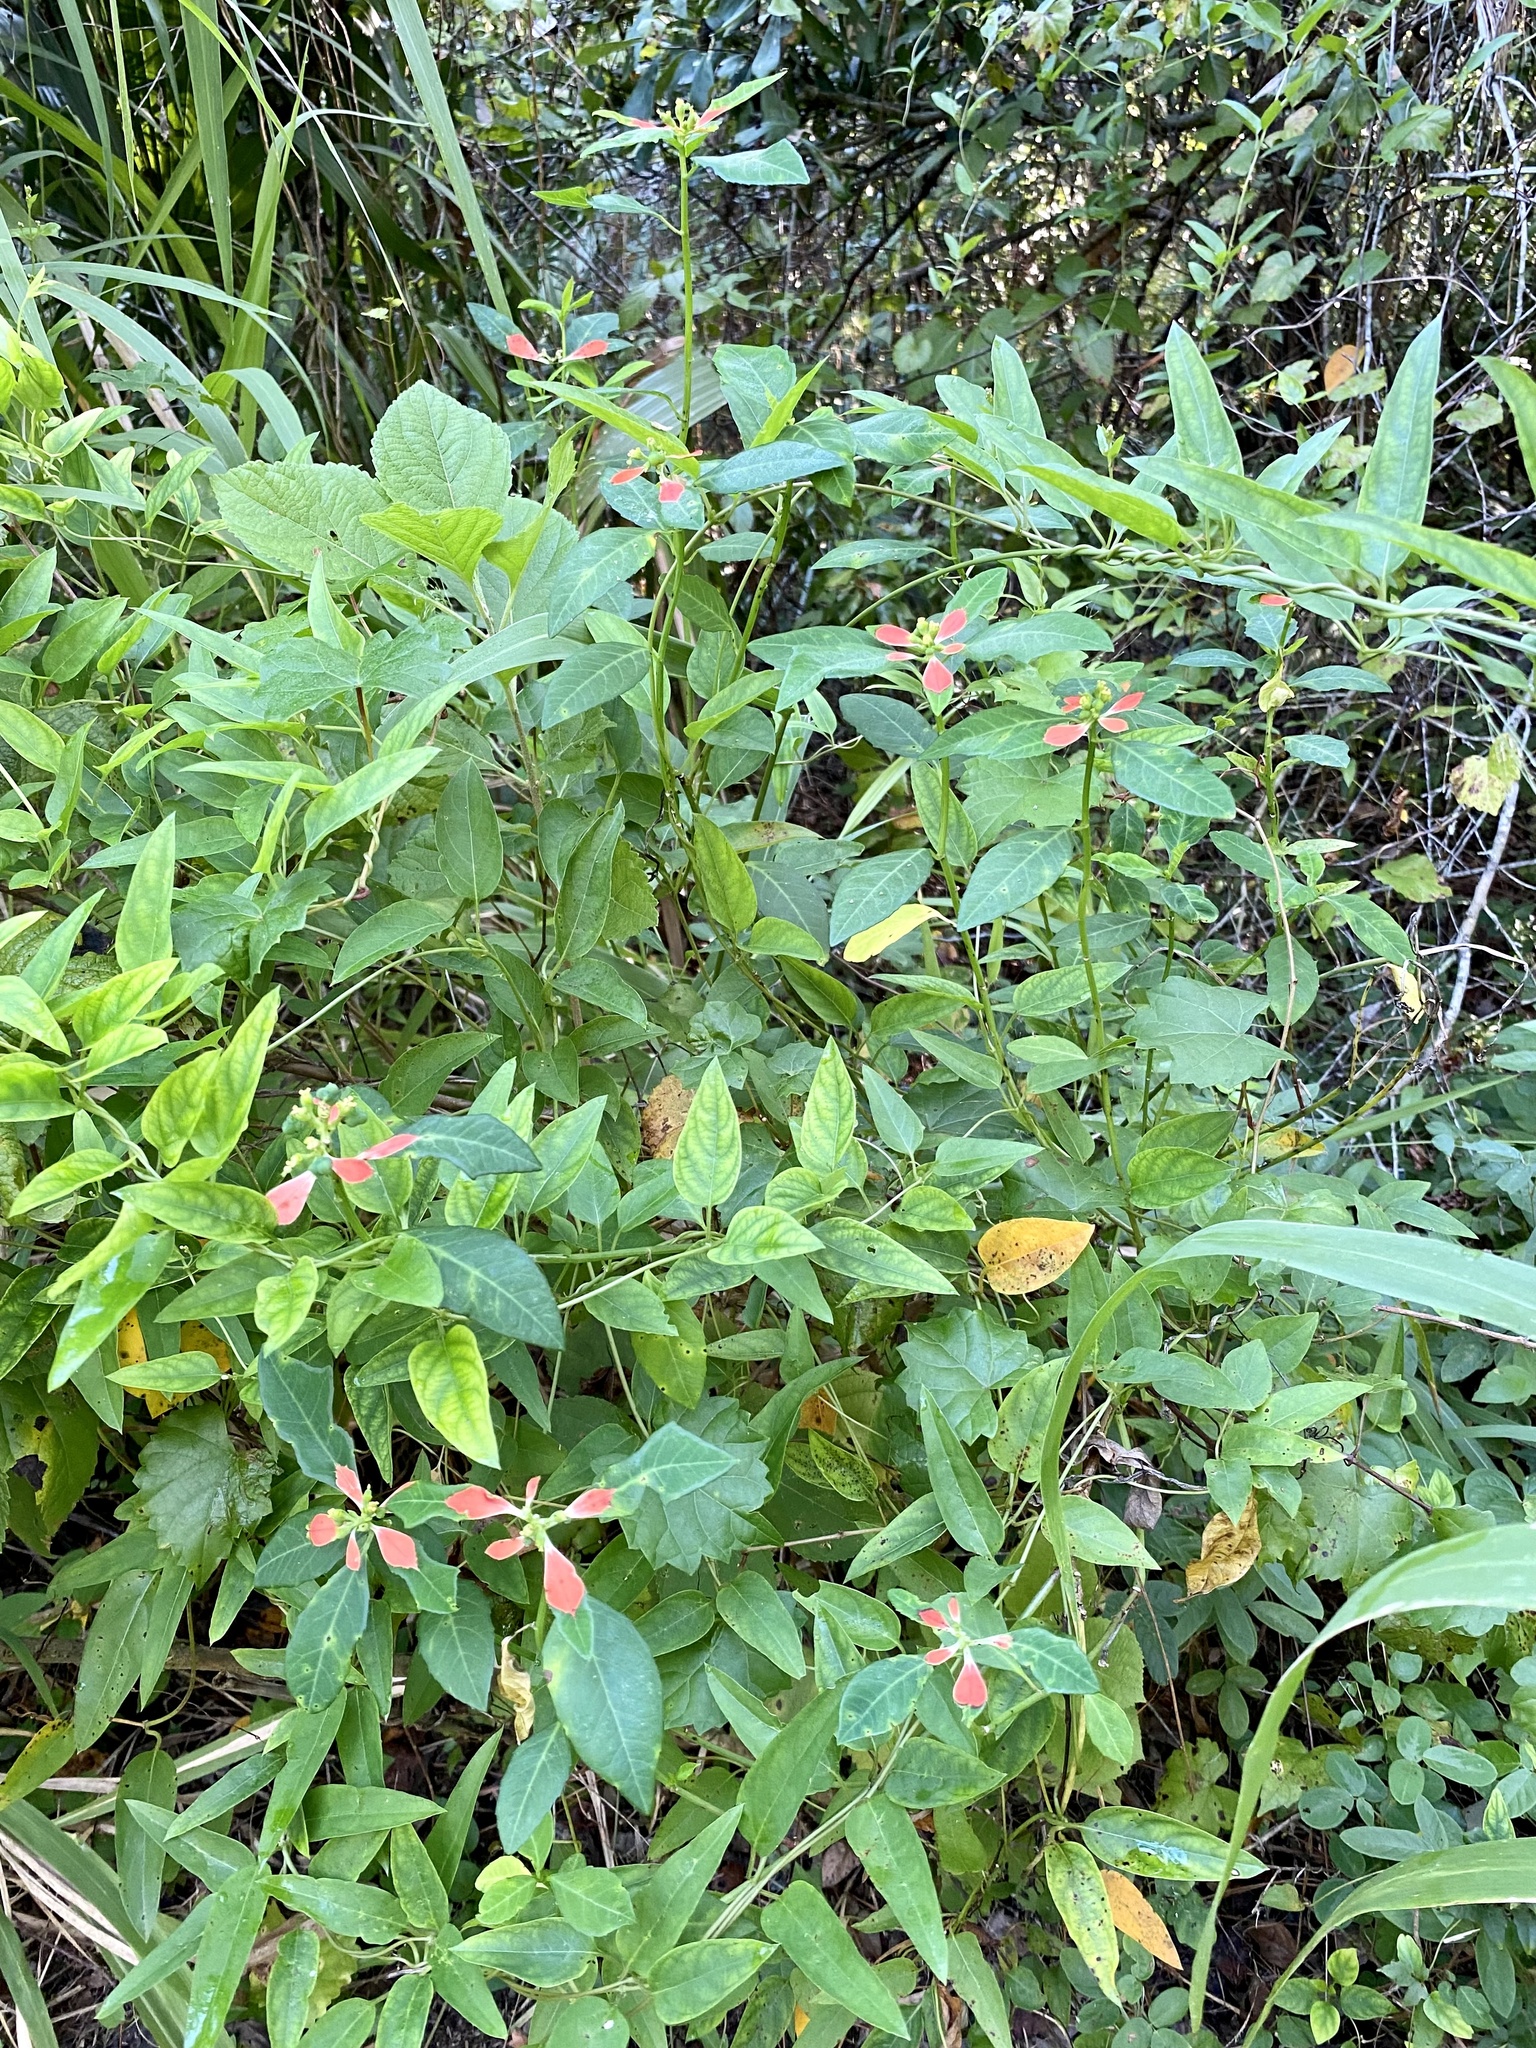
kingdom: Plantae
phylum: Tracheophyta
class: Magnoliopsida
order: Malpighiales
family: Euphorbiaceae
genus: Euphorbia
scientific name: Euphorbia heterophylla
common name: Mexican fireplant
